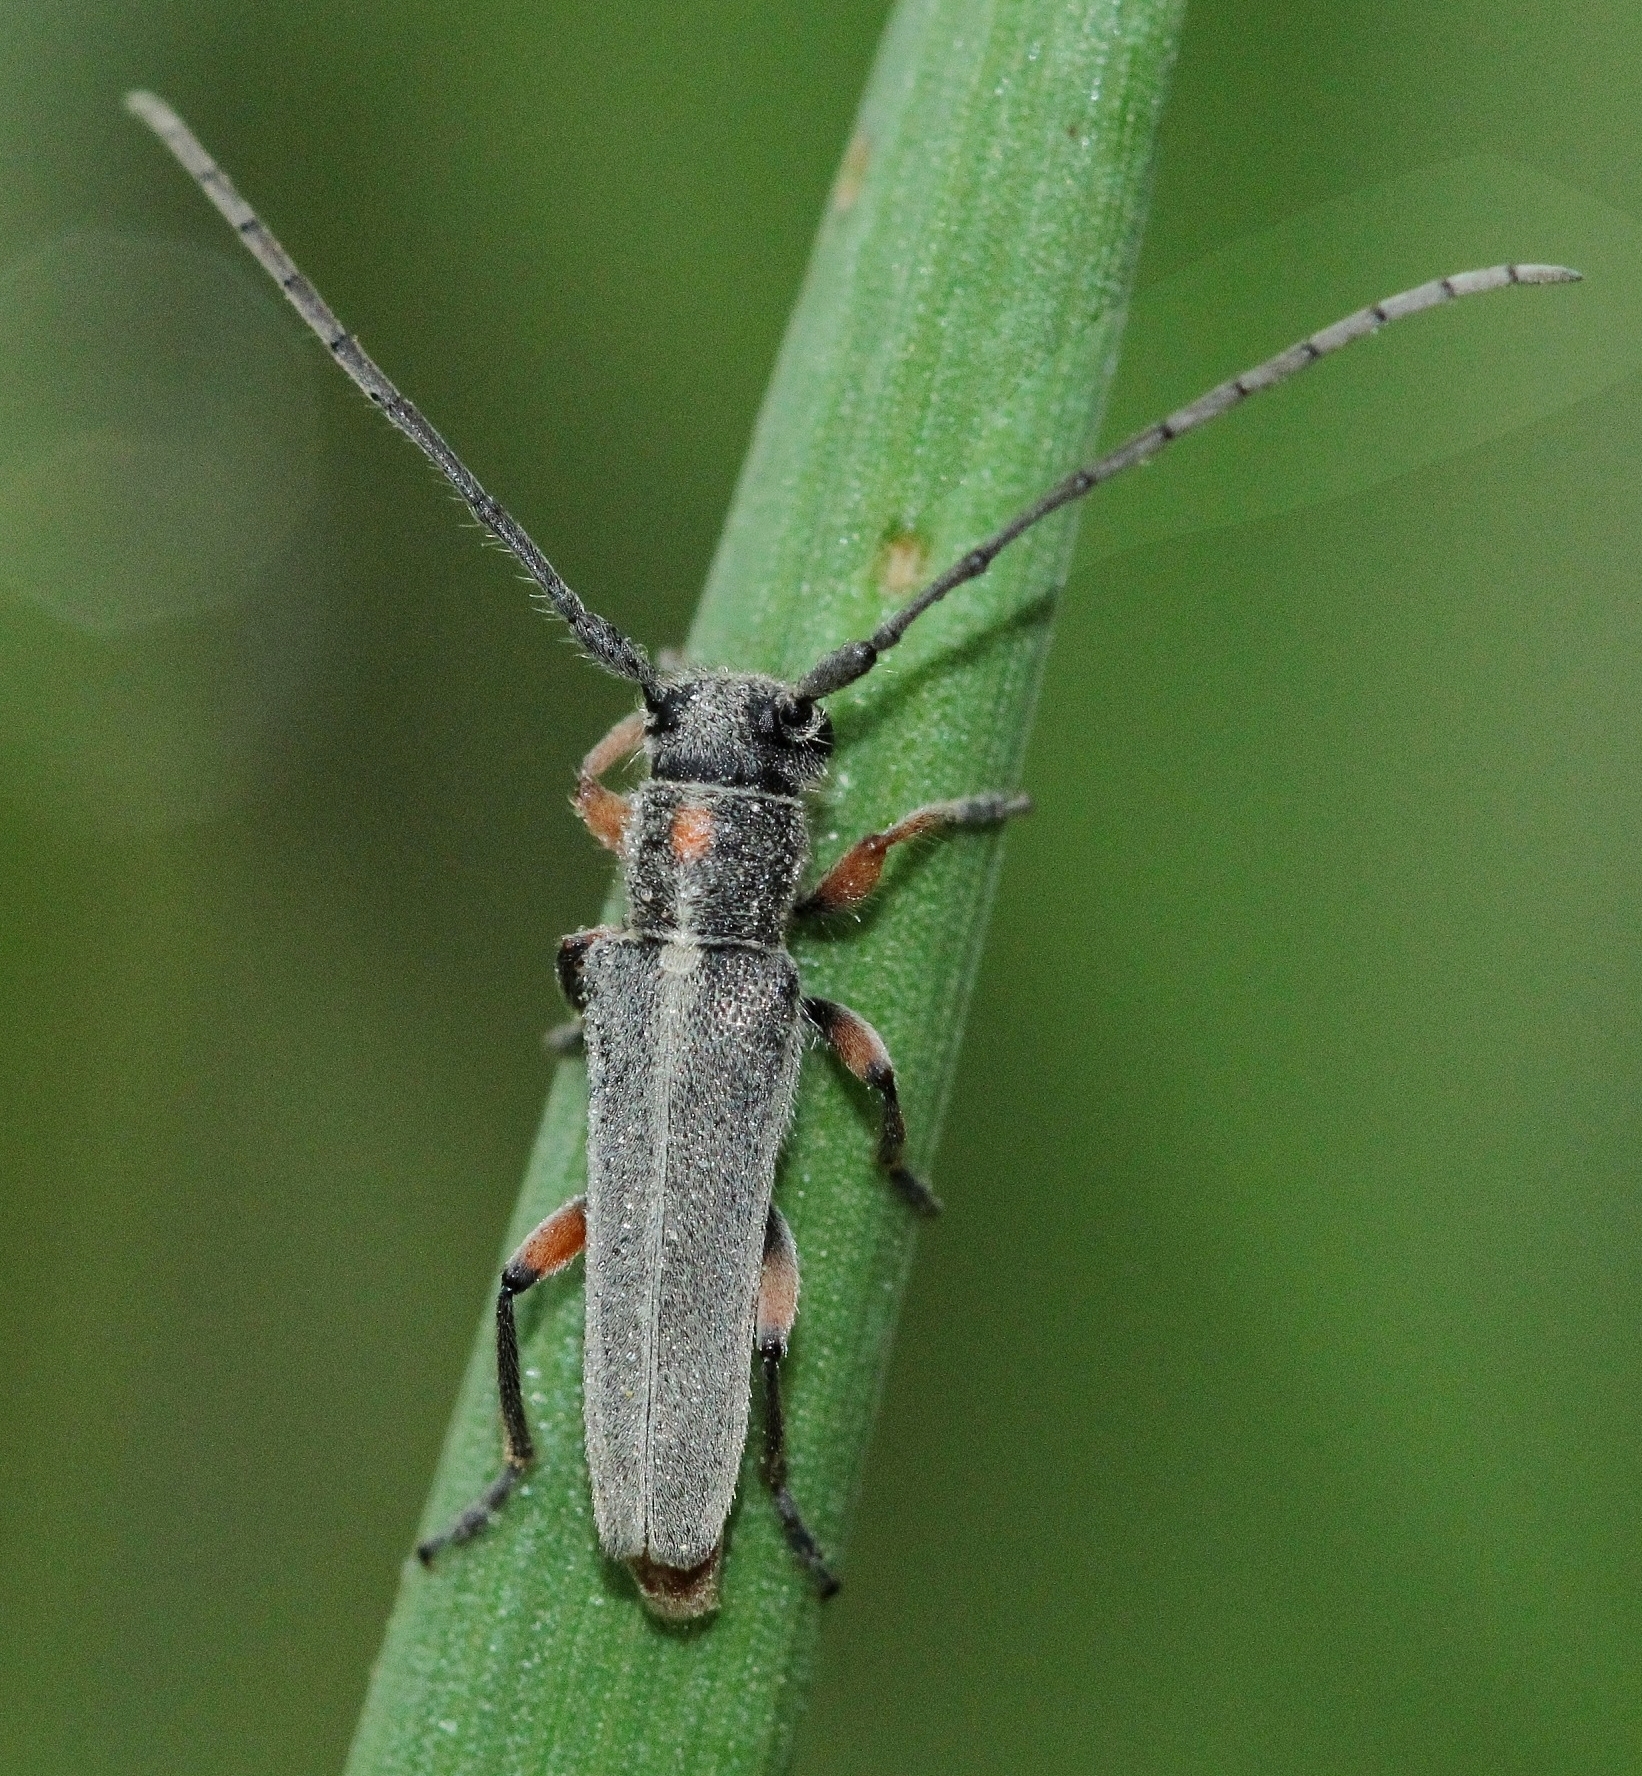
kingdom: Animalia
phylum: Arthropoda
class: Insecta
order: Coleoptera
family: Cerambycidae
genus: Phytoecia
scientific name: Phytoecia virgula
